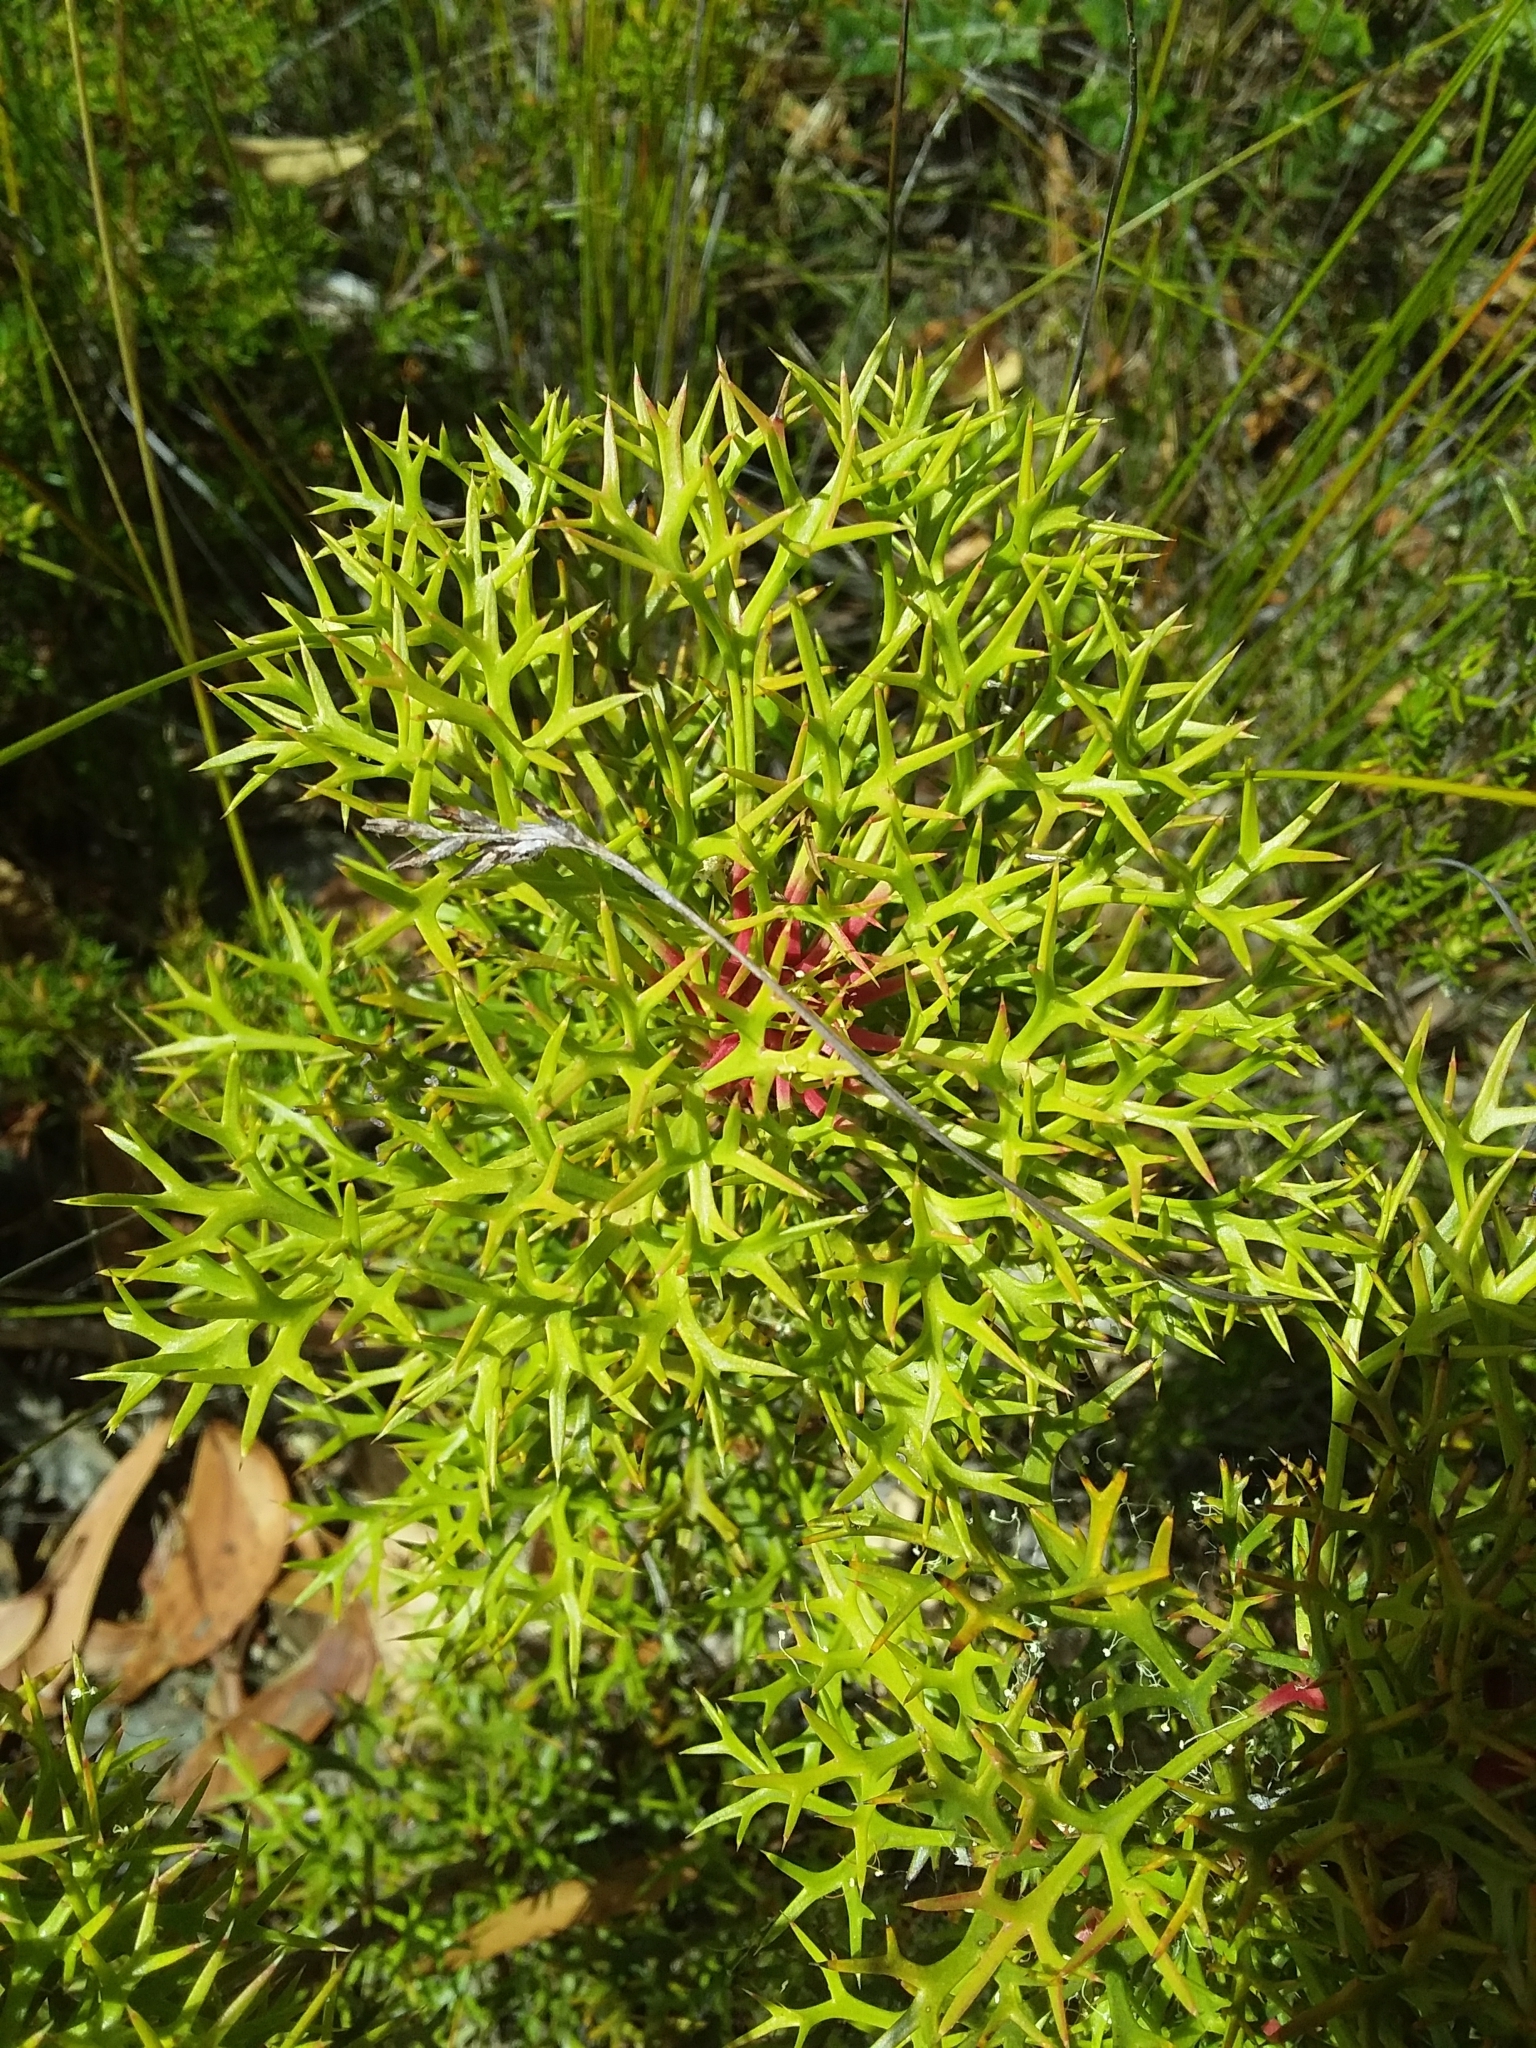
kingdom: Plantae
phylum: Tracheophyta
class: Magnoliopsida
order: Proteales
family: Proteaceae
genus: Isopogon
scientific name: Isopogon ceratophyllus
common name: Horny cone-bush
